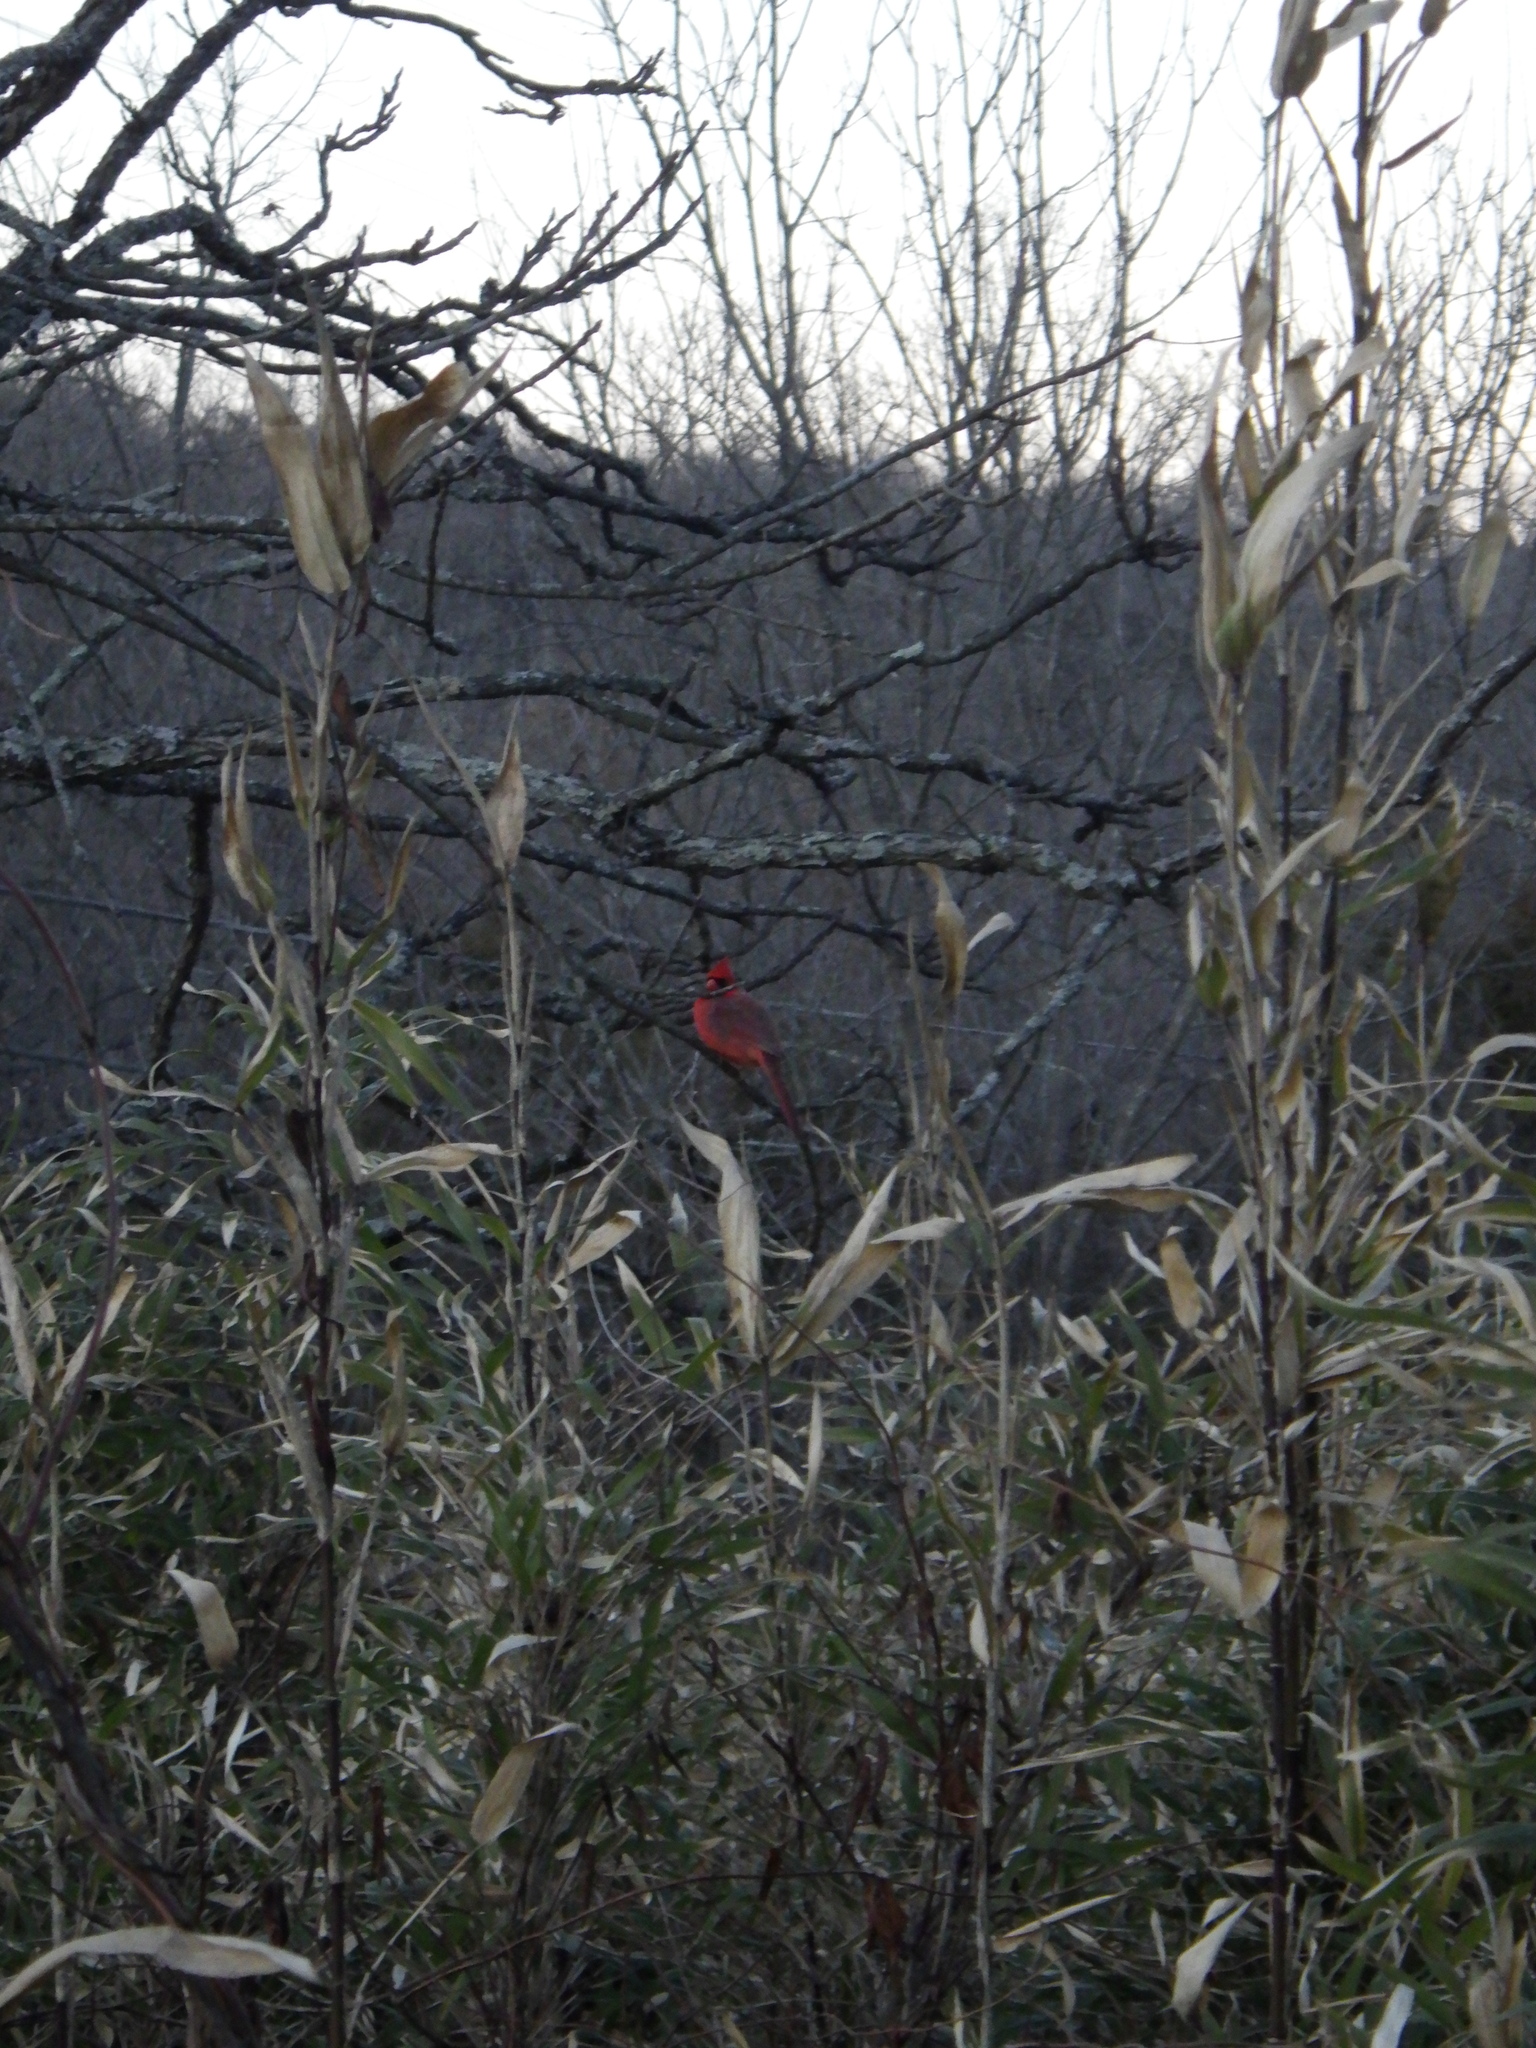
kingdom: Animalia
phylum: Chordata
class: Aves
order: Passeriformes
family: Cardinalidae
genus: Cardinalis
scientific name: Cardinalis cardinalis
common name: Northern cardinal
